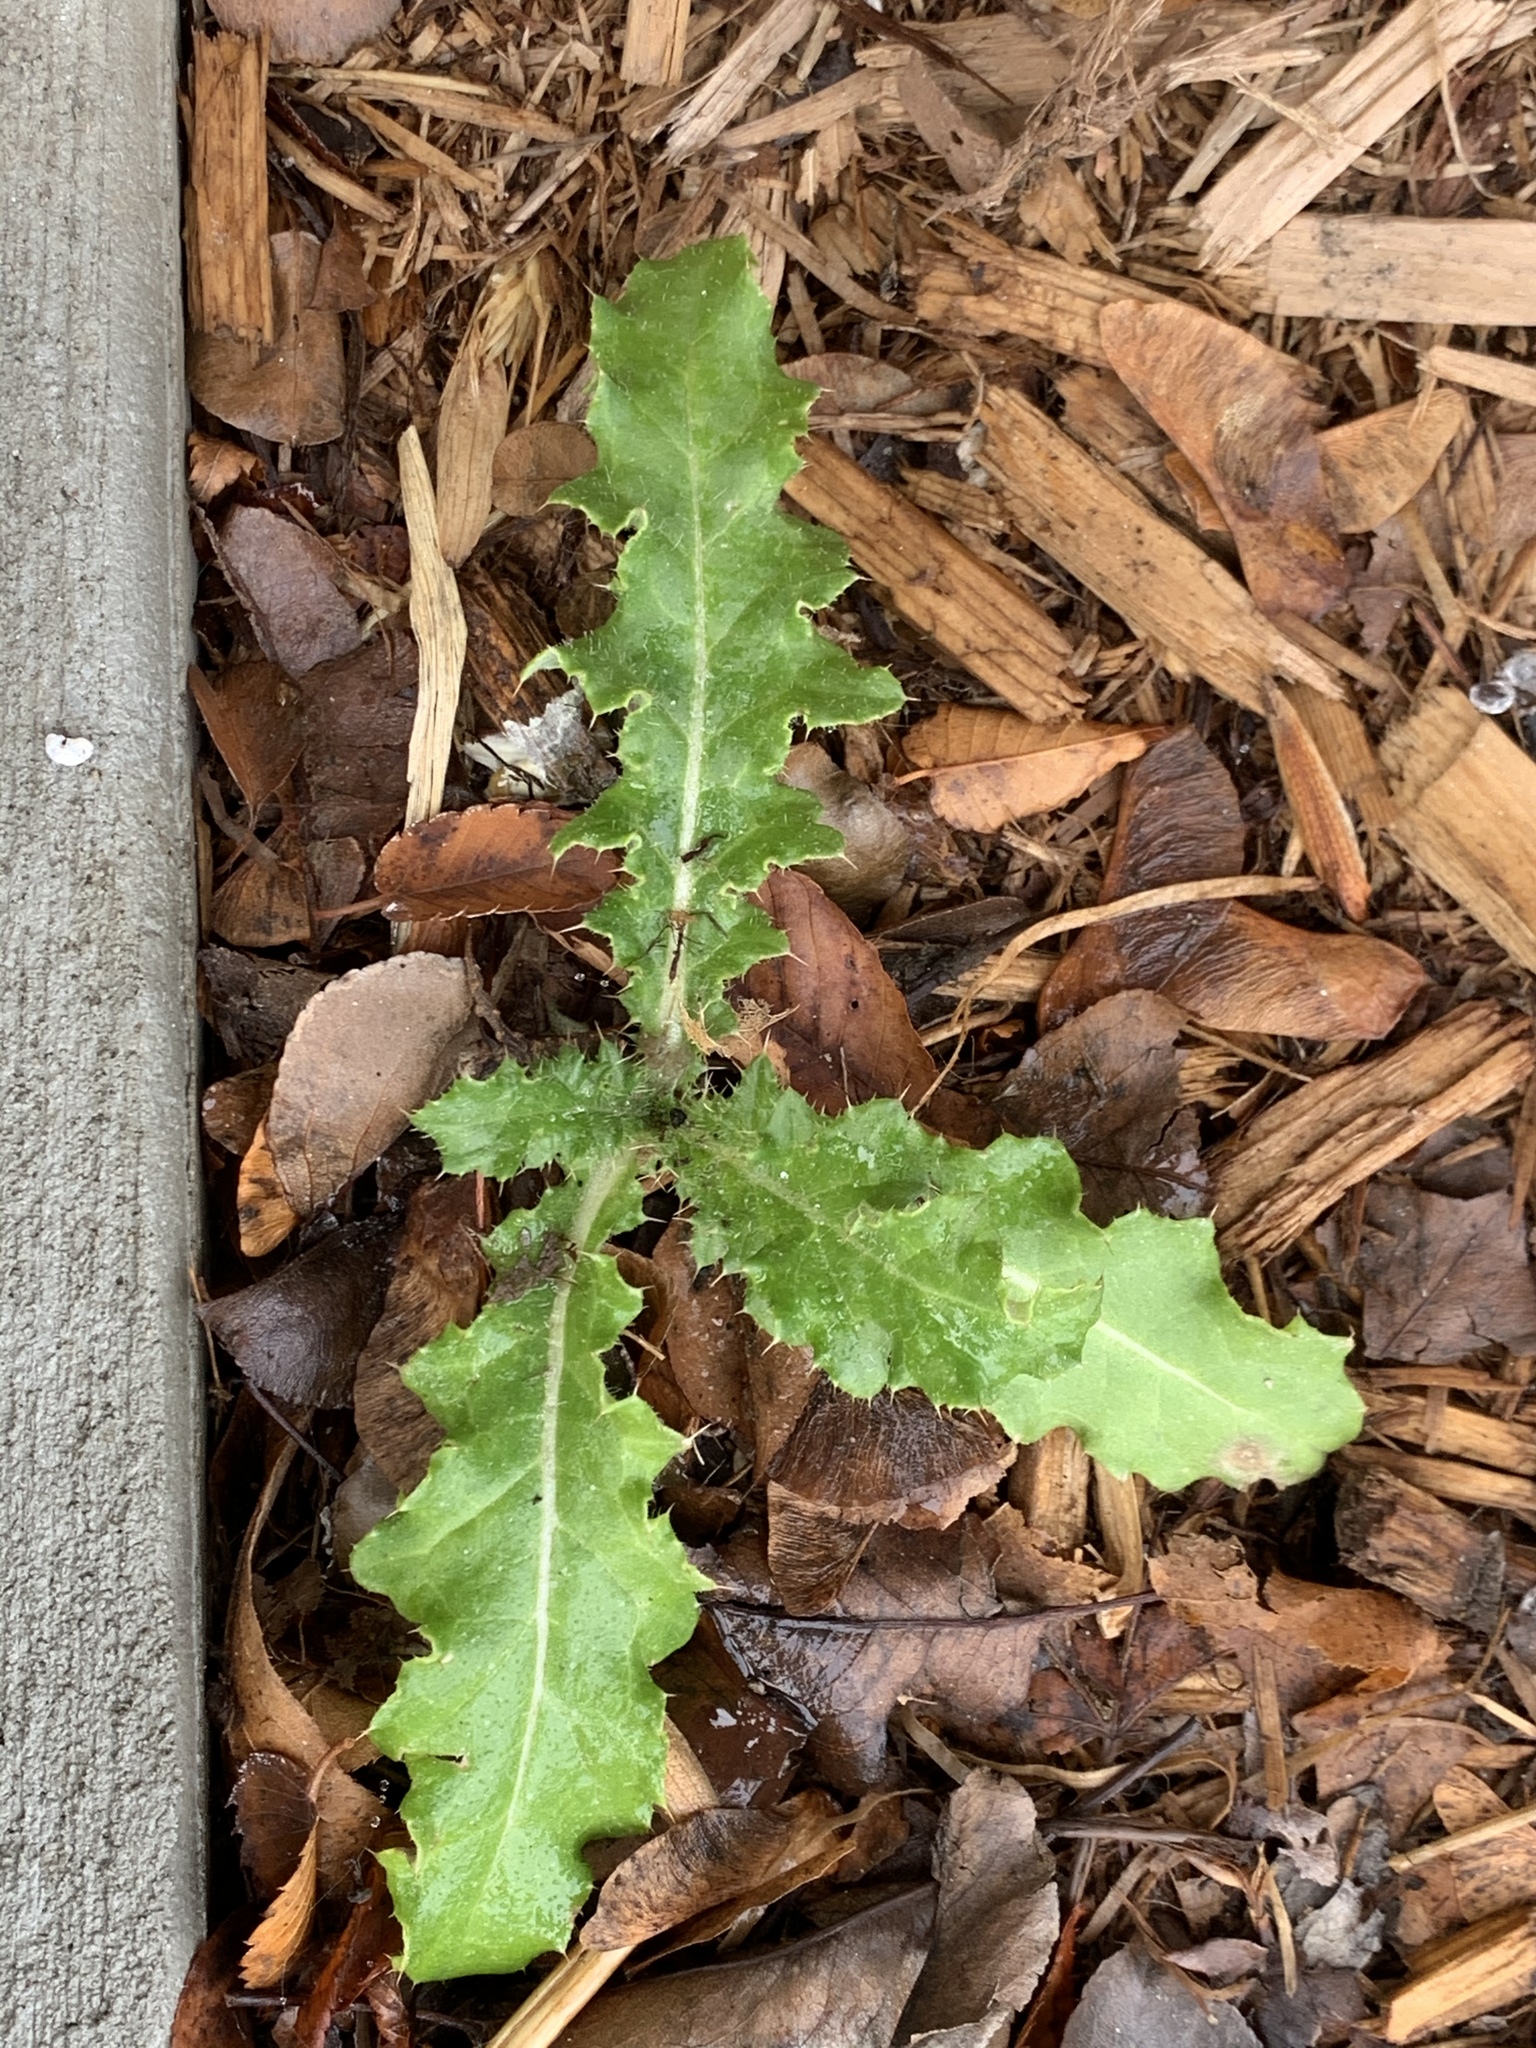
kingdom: Plantae
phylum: Tracheophyta
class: Magnoliopsida
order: Asterales
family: Asteraceae
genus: Cirsium
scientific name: Cirsium arvense
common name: Creeping thistle
